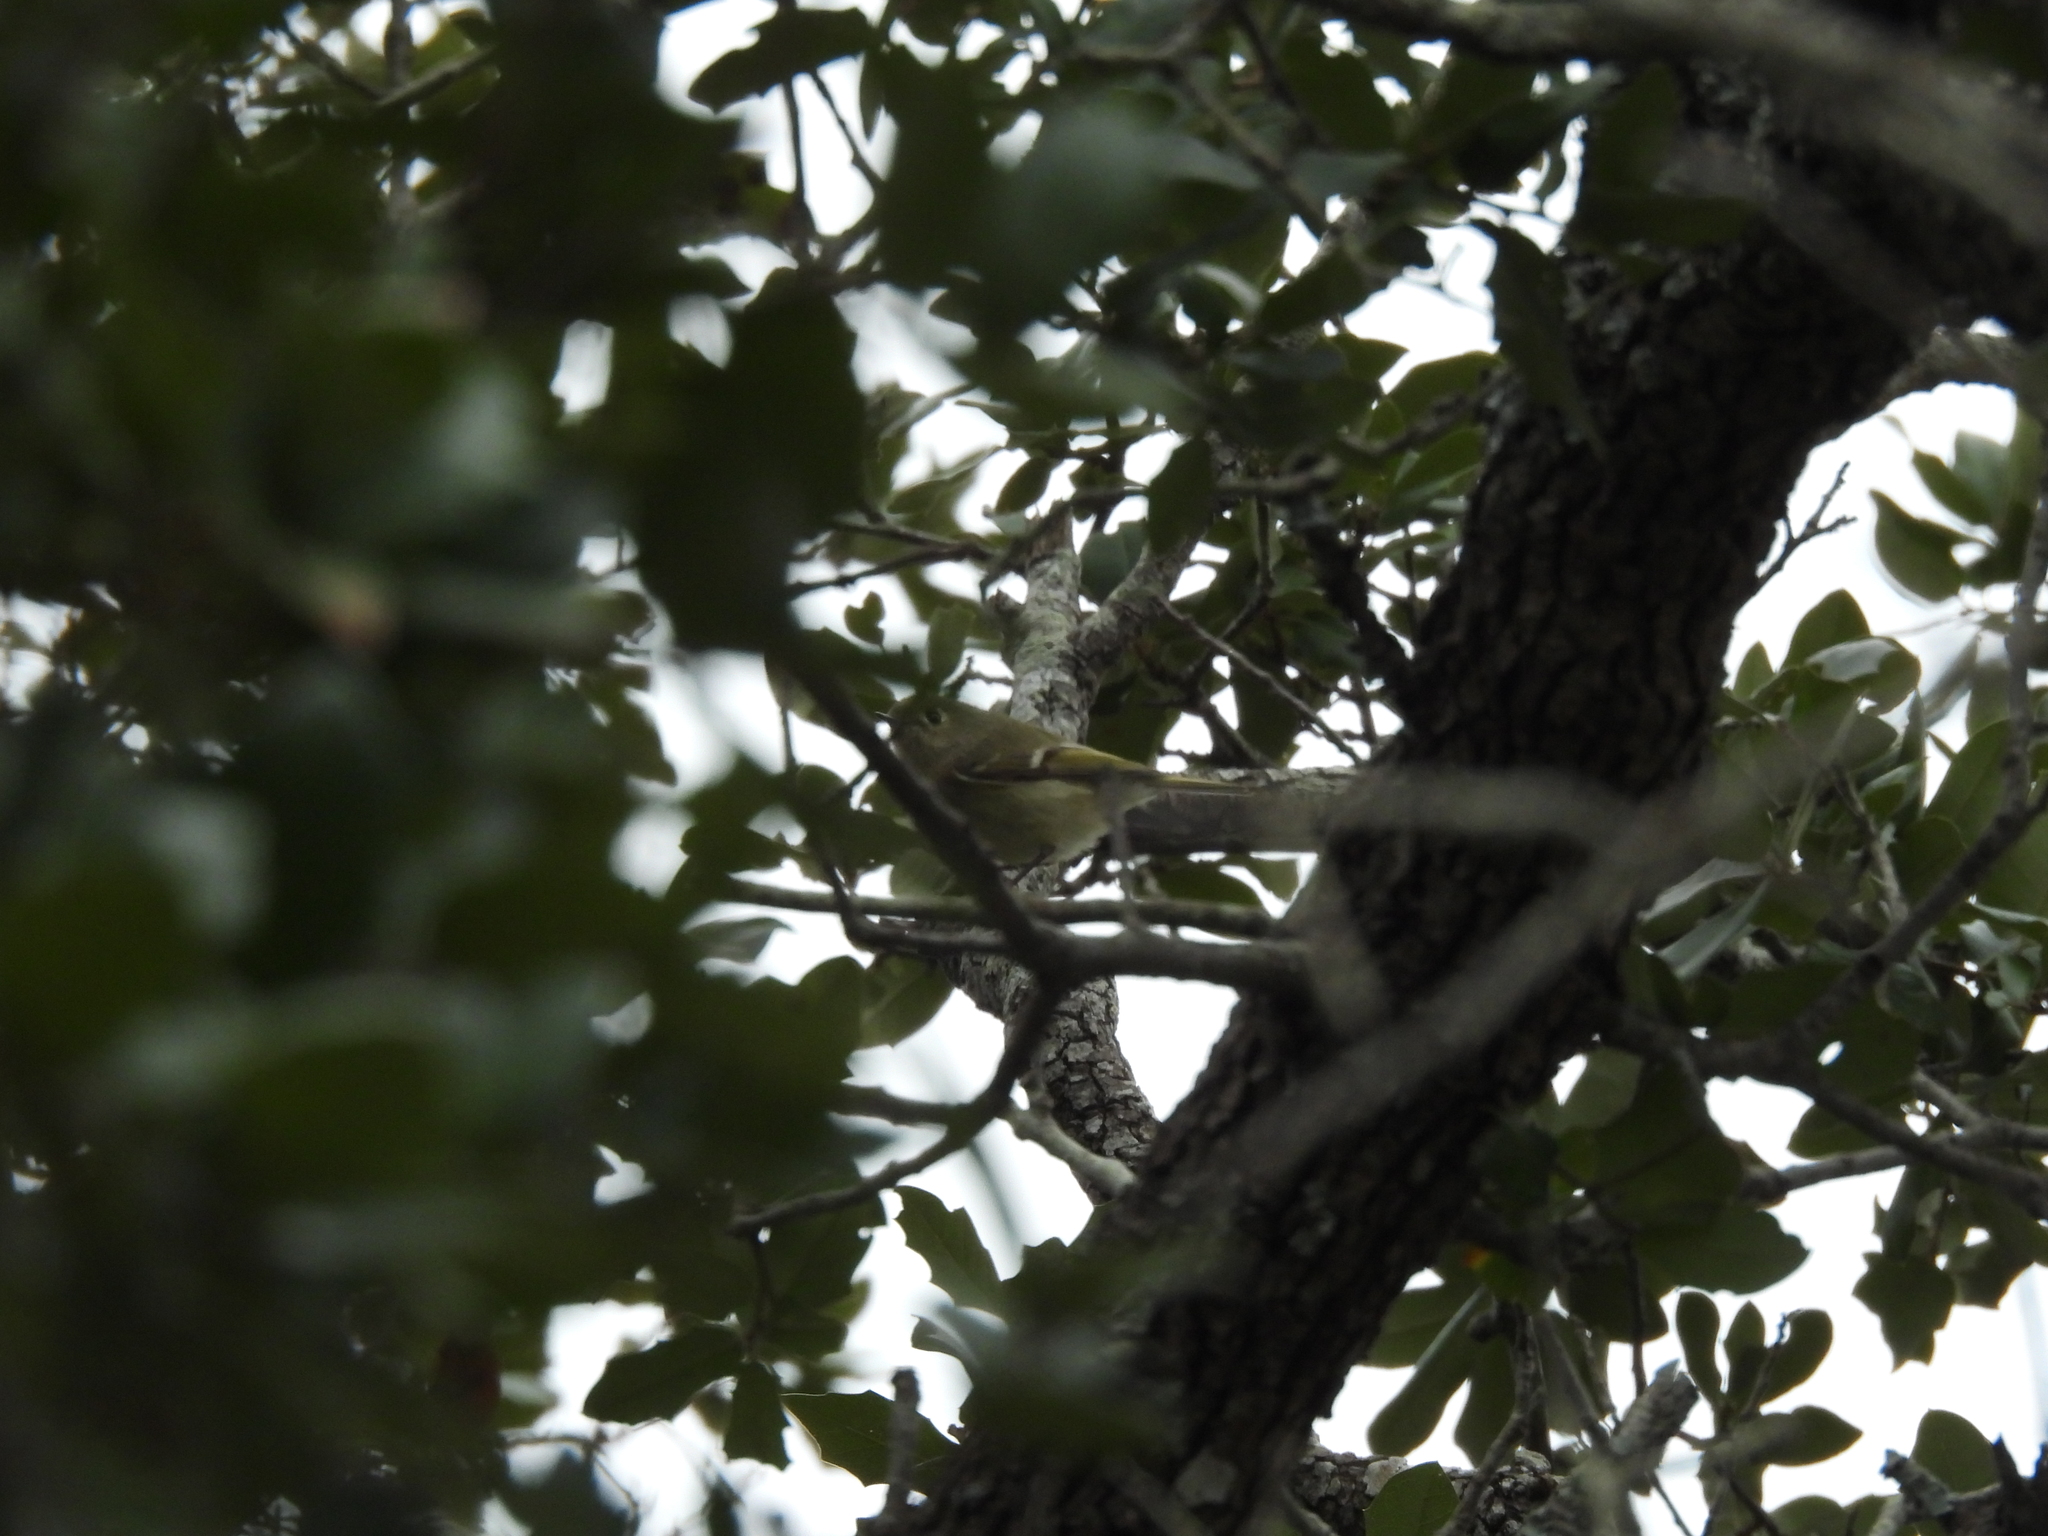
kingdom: Animalia
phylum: Chordata
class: Aves
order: Passeriformes
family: Regulidae
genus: Regulus
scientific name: Regulus calendula
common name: Ruby-crowned kinglet
